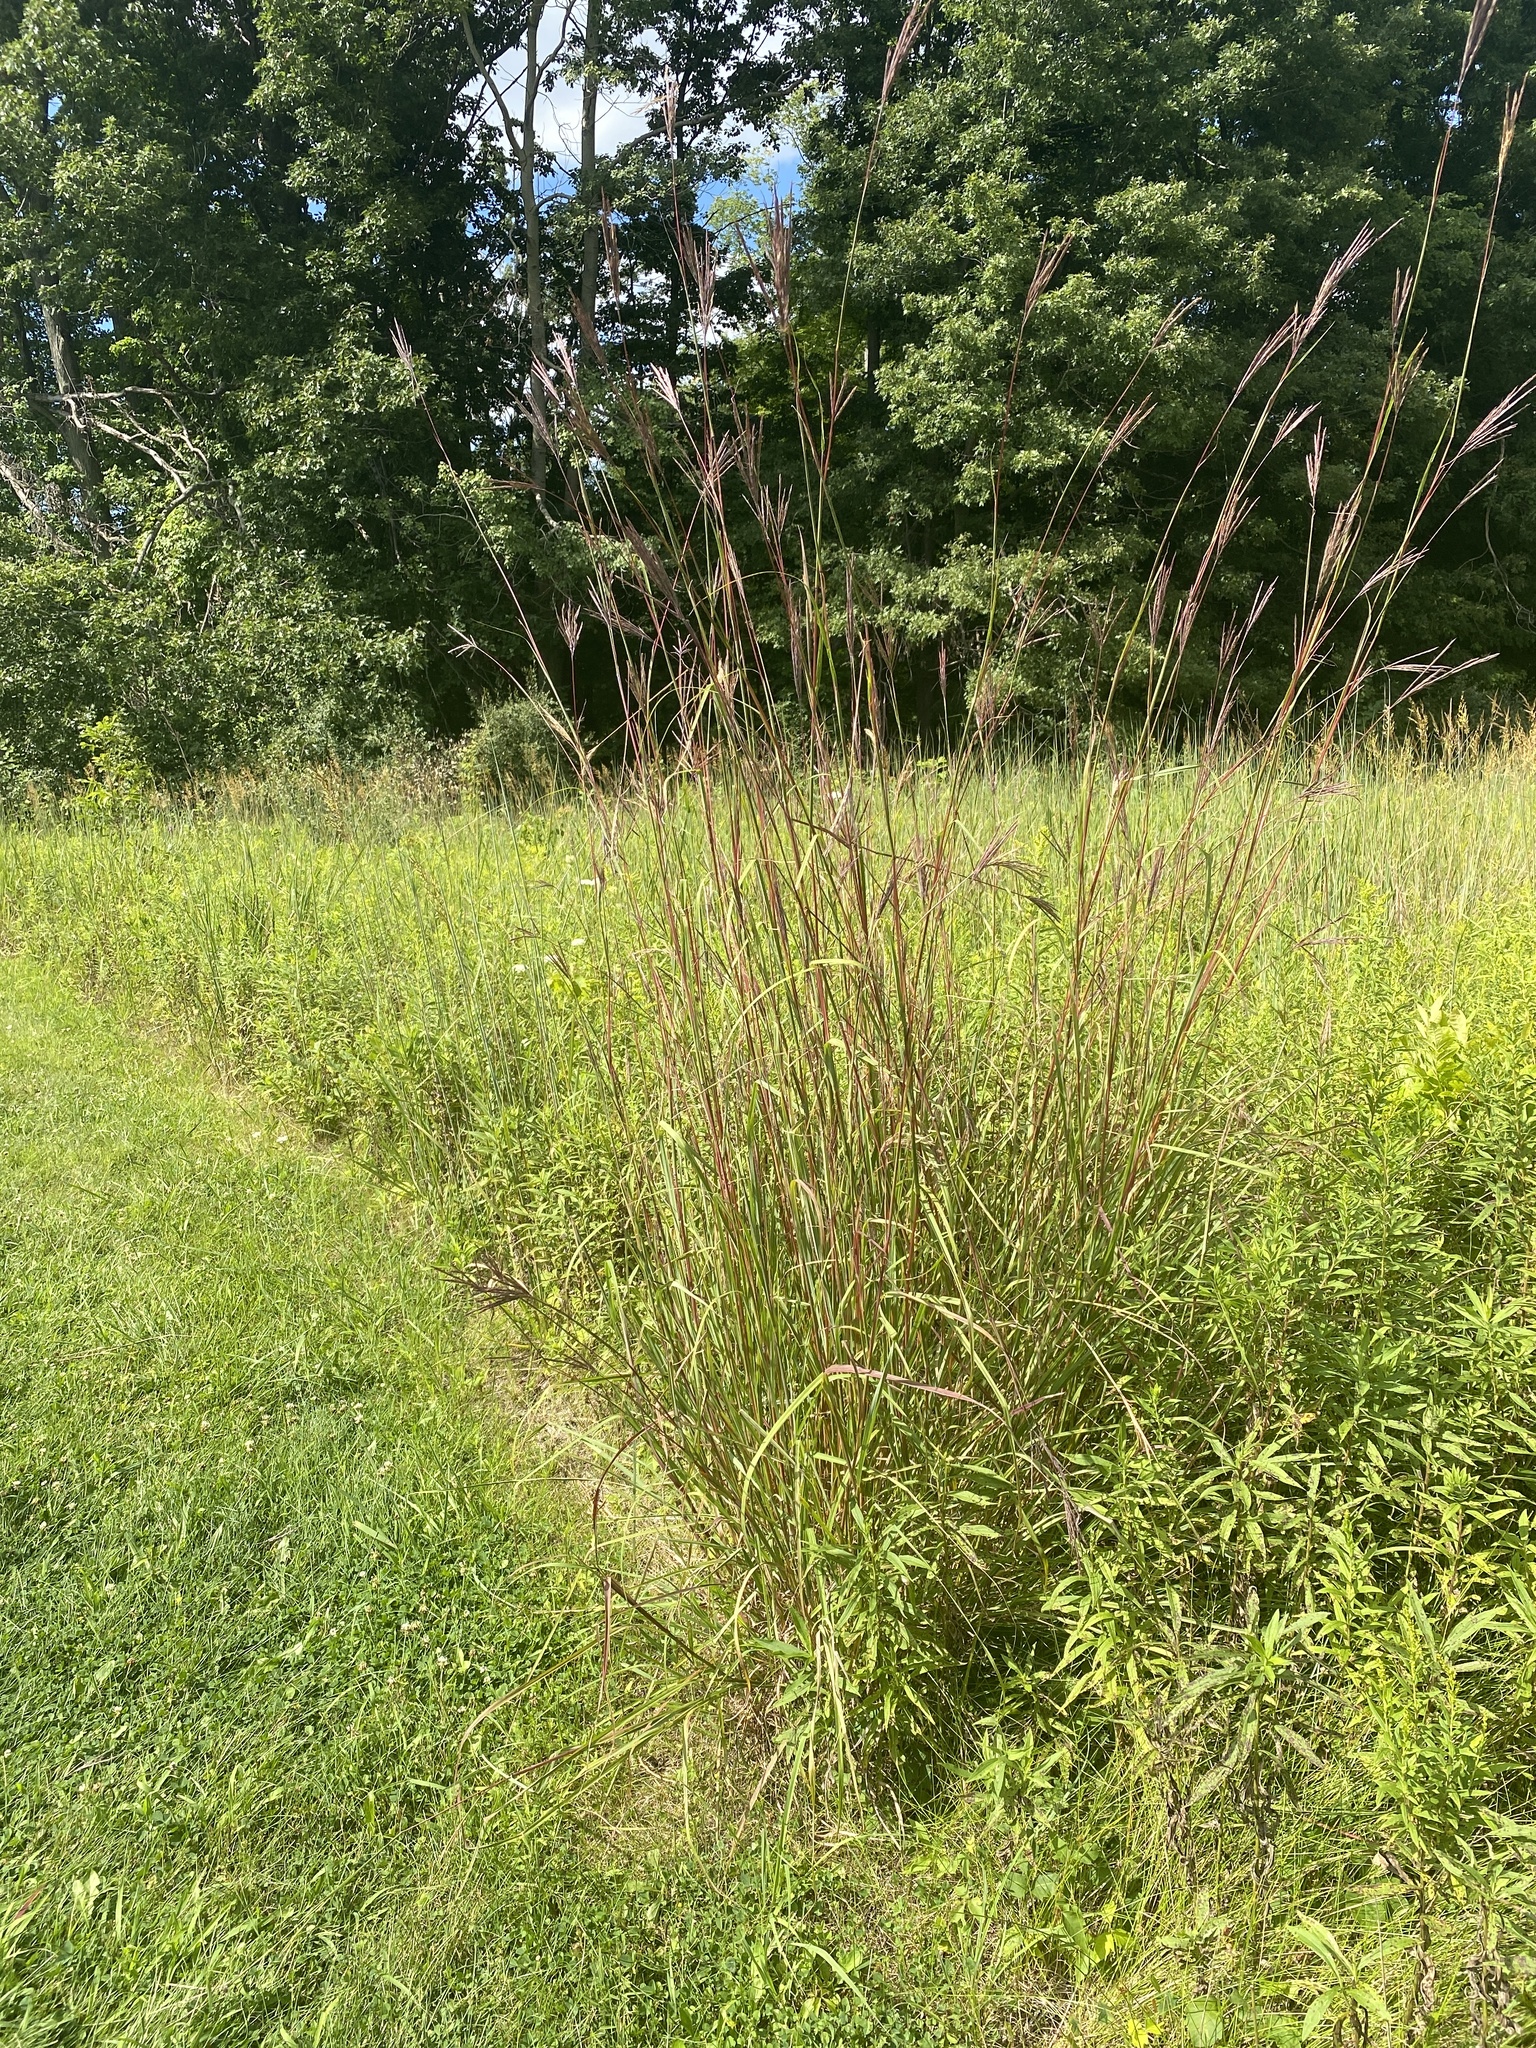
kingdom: Plantae
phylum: Tracheophyta
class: Liliopsida
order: Poales
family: Poaceae
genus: Andropogon
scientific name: Andropogon gerardi
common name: Big bluestem
